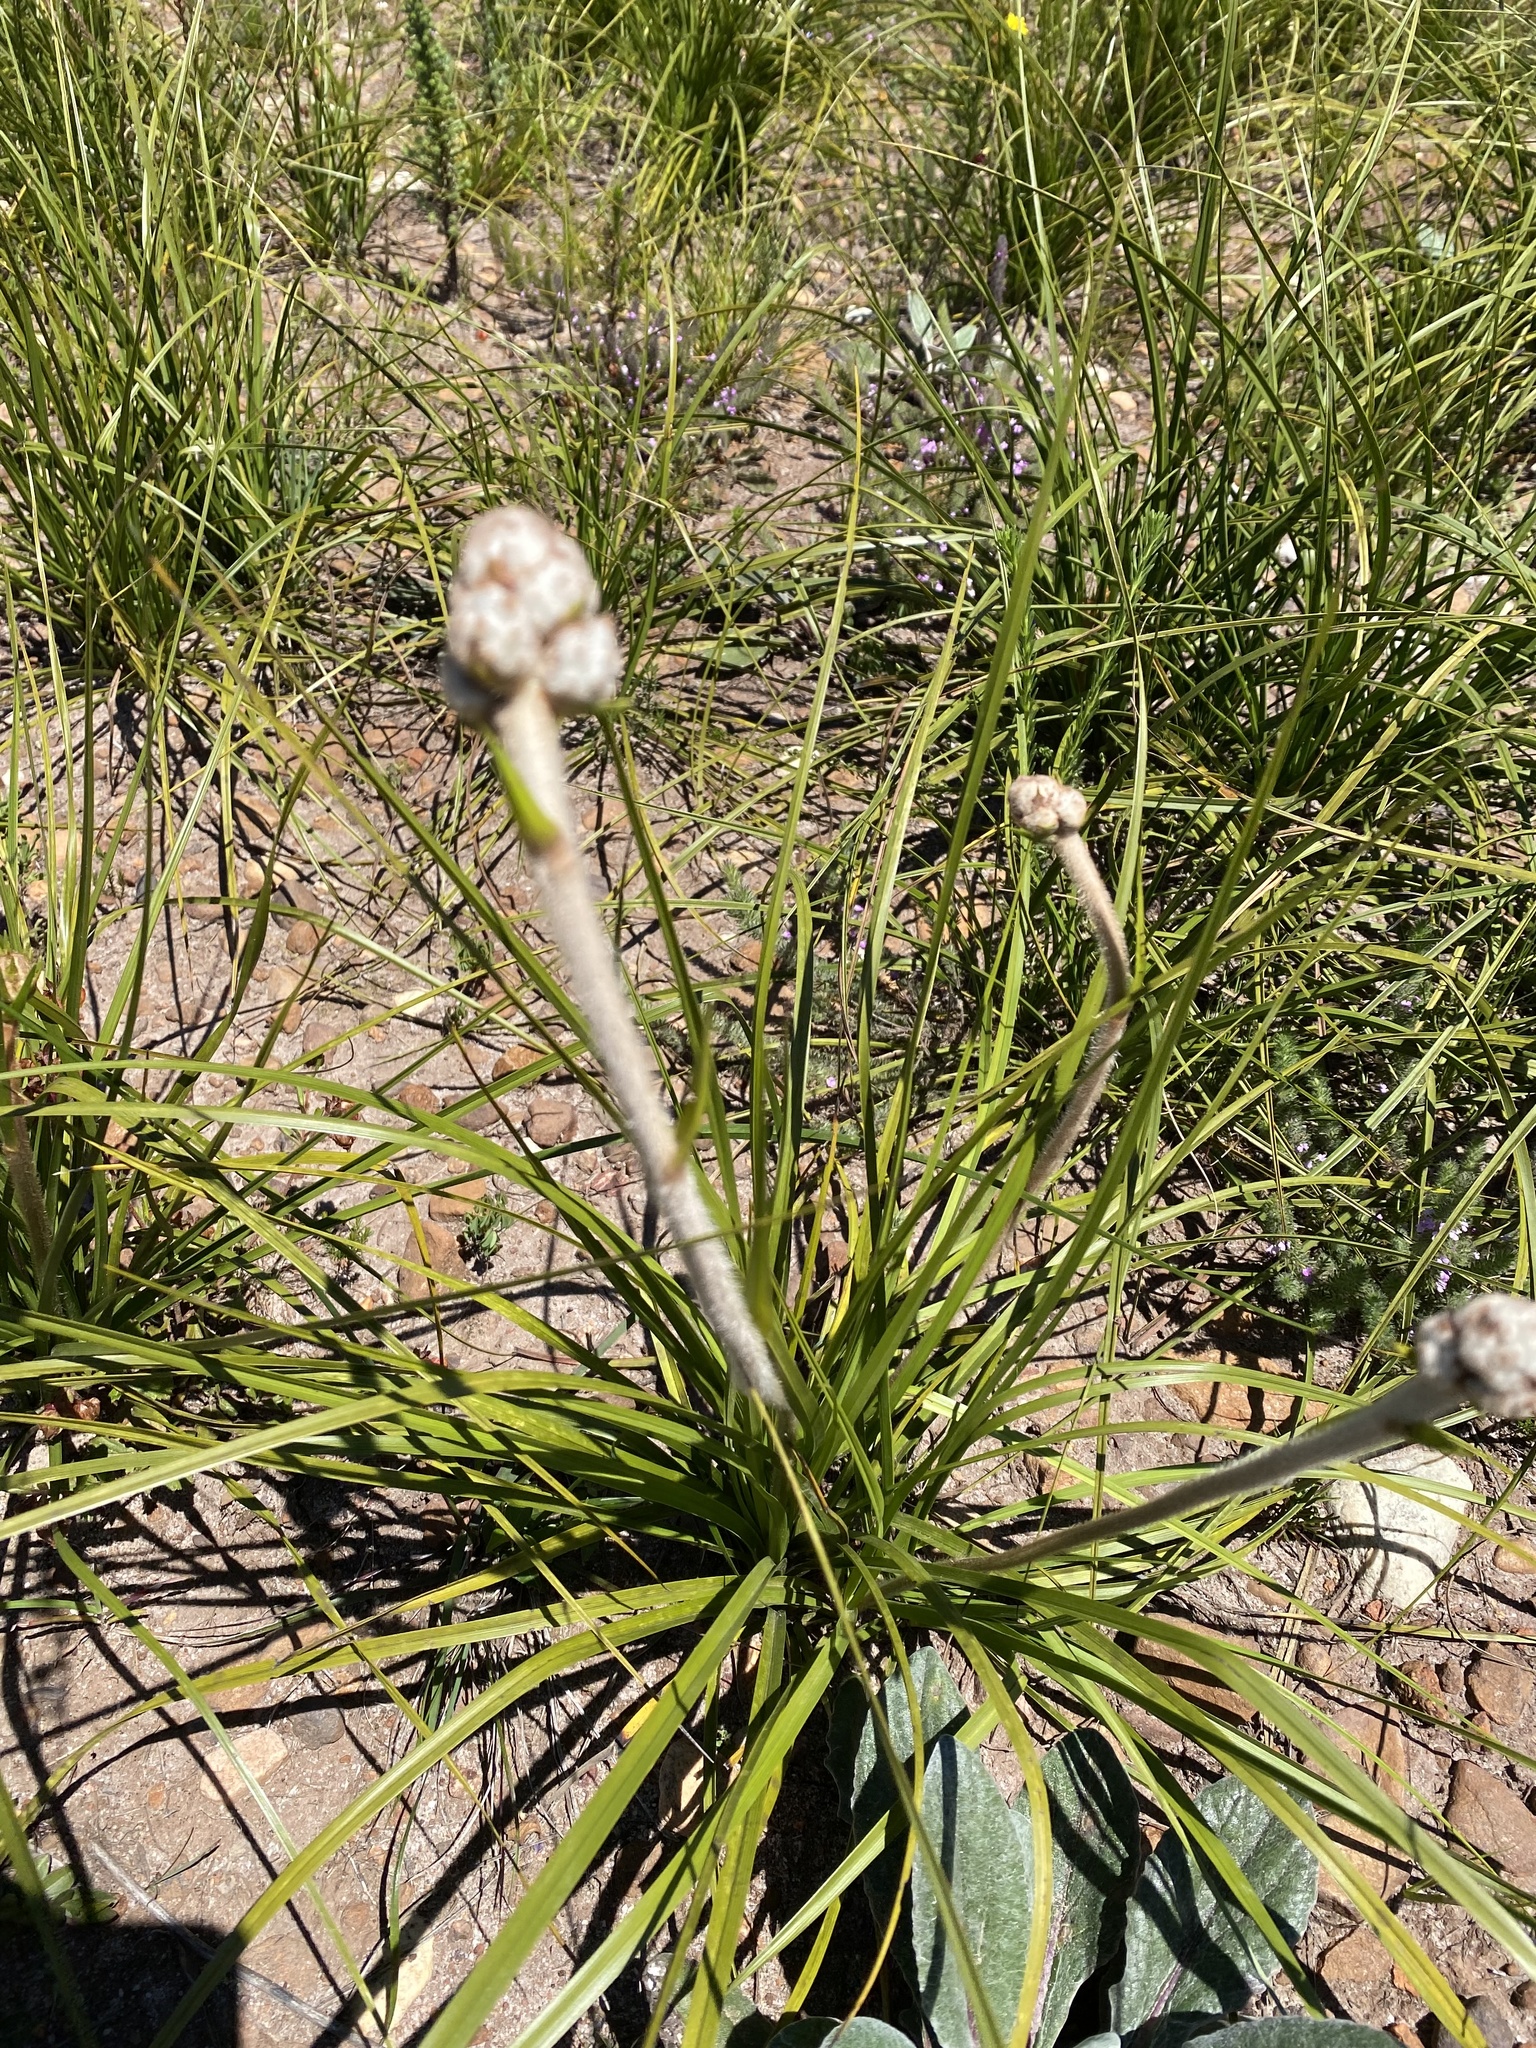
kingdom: Plantae
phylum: Tracheophyta
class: Liliopsida
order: Asparagales
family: Lanariaceae
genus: Lanaria
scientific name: Lanaria lanata
